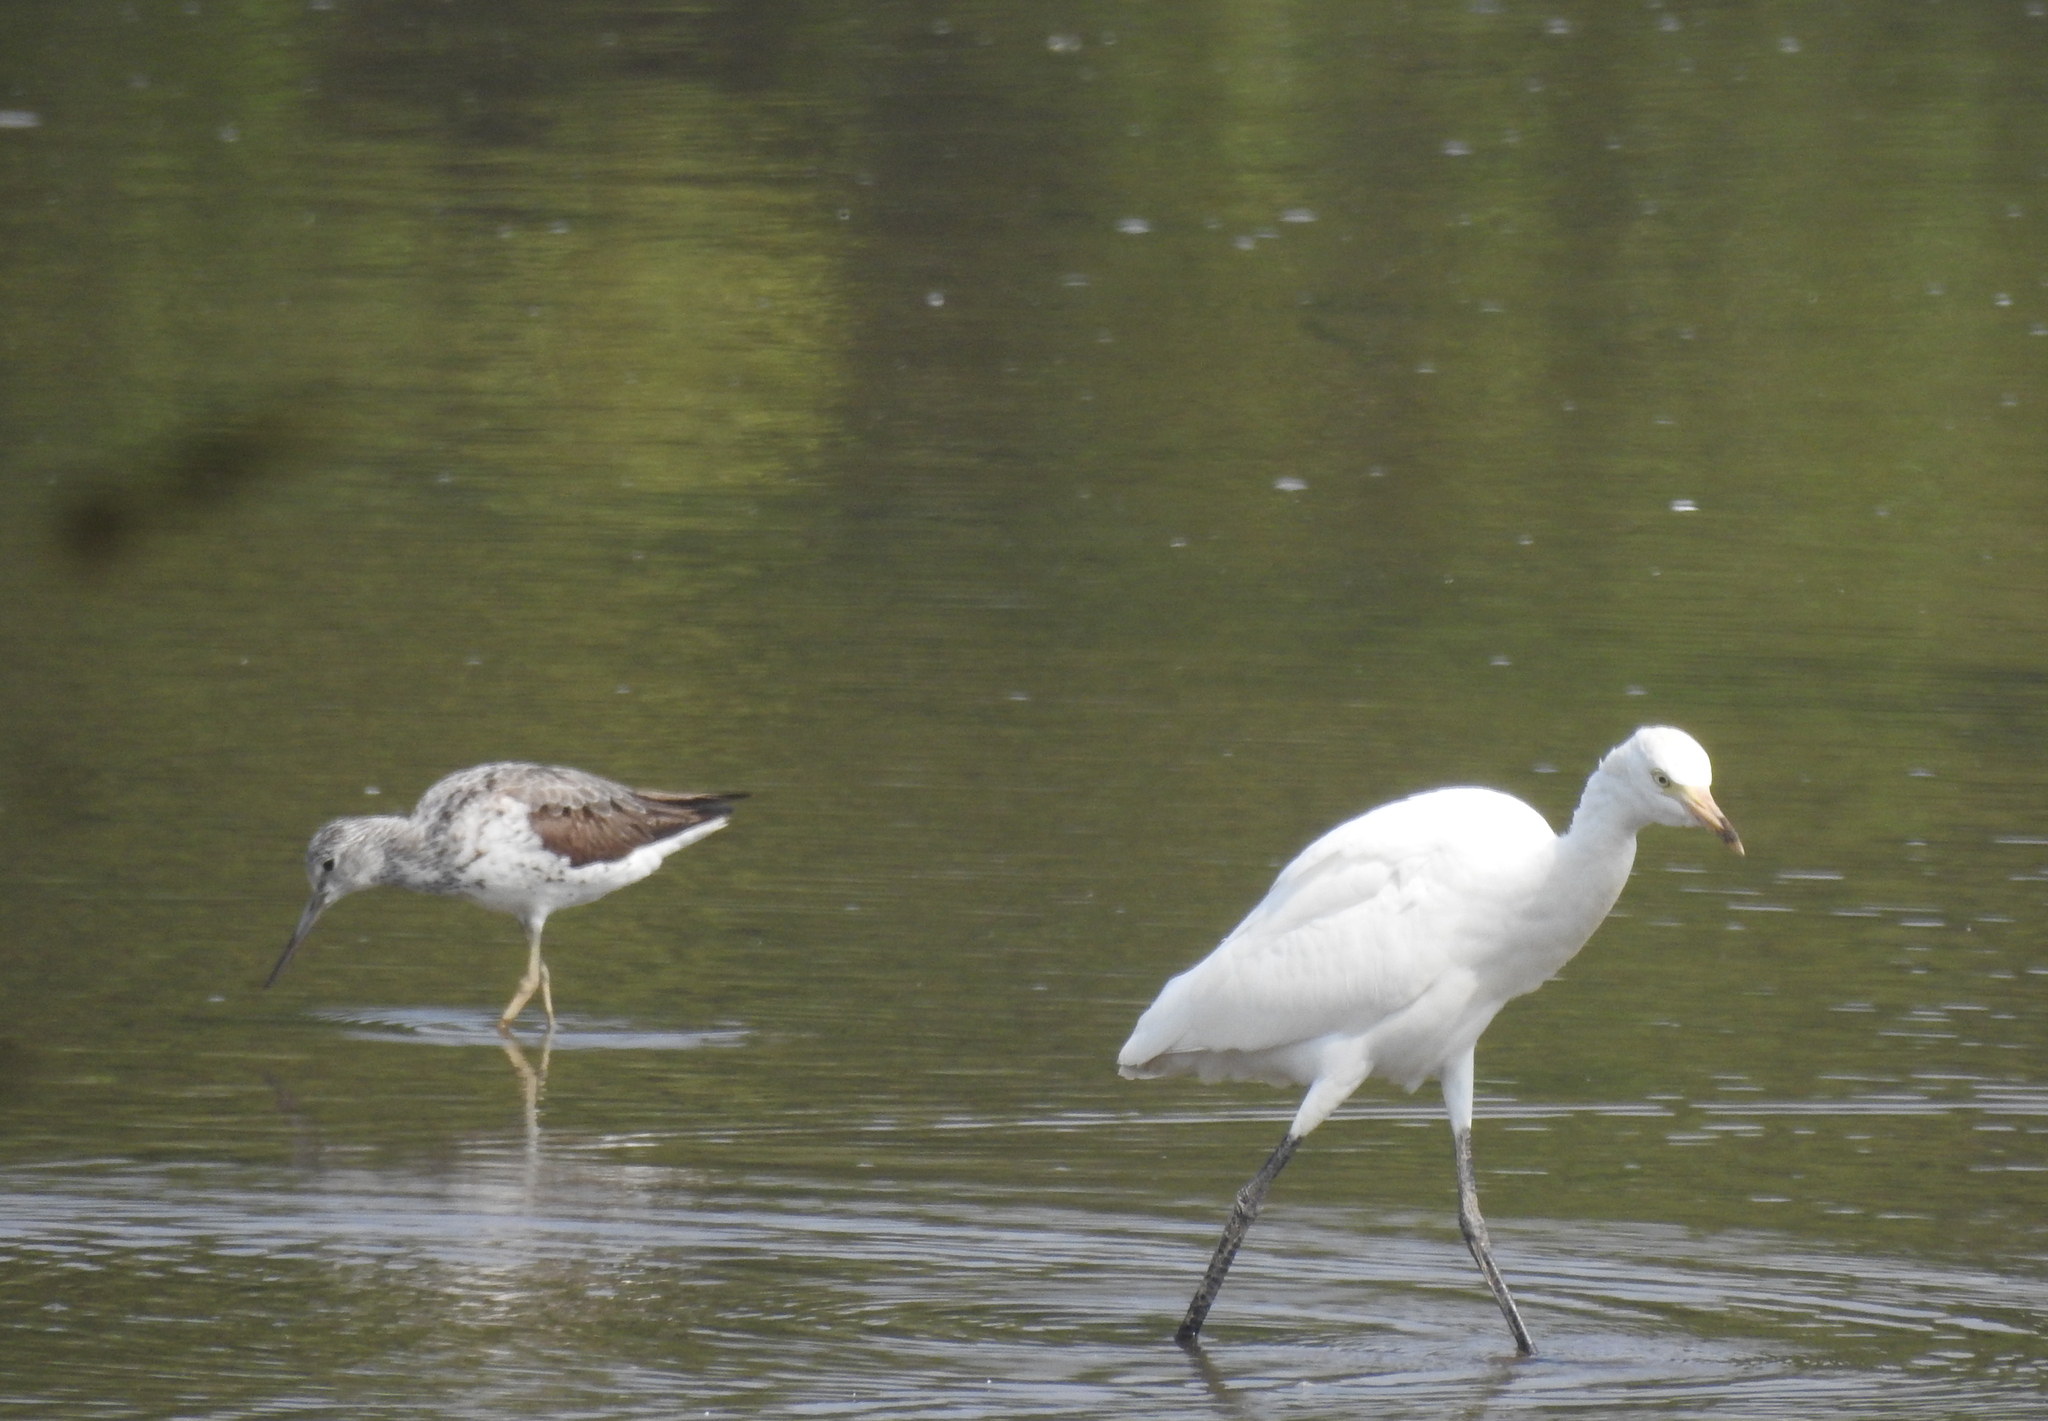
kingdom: Animalia
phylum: Chordata
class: Aves
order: Charadriiformes
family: Scolopacidae
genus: Tringa
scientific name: Tringa nebularia
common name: Common greenshank
